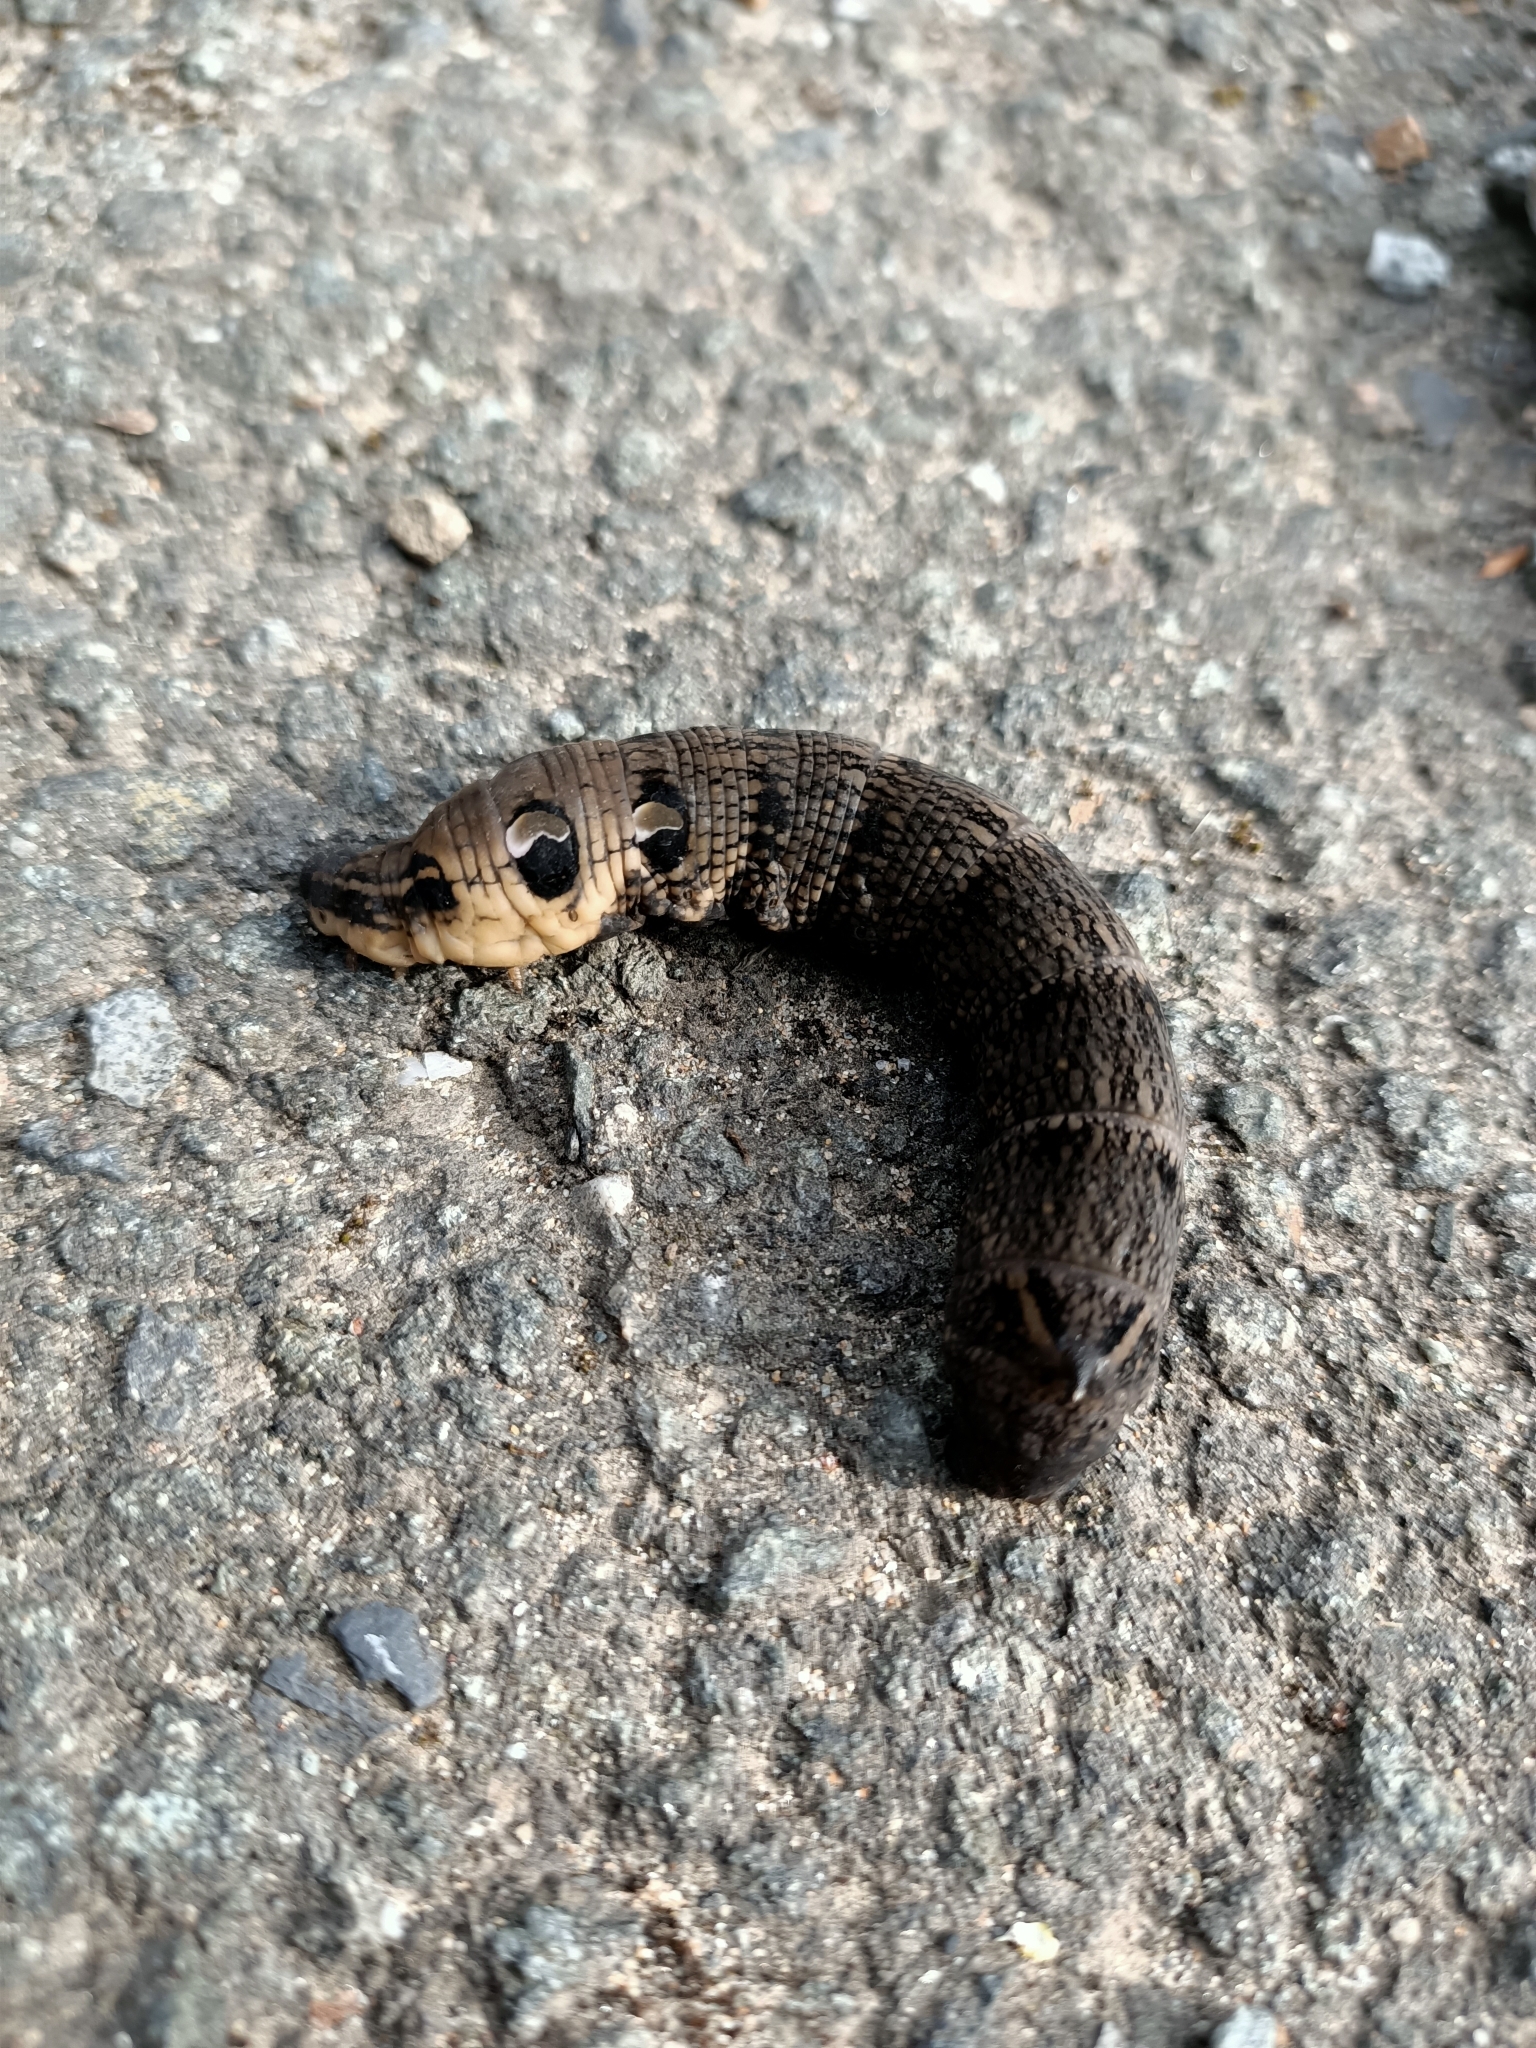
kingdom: Animalia
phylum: Arthropoda
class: Insecta
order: Lepidoptera
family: Sphingidae
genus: Deilephila
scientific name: Deilephila elpenor
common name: Elephant hawk-moth
